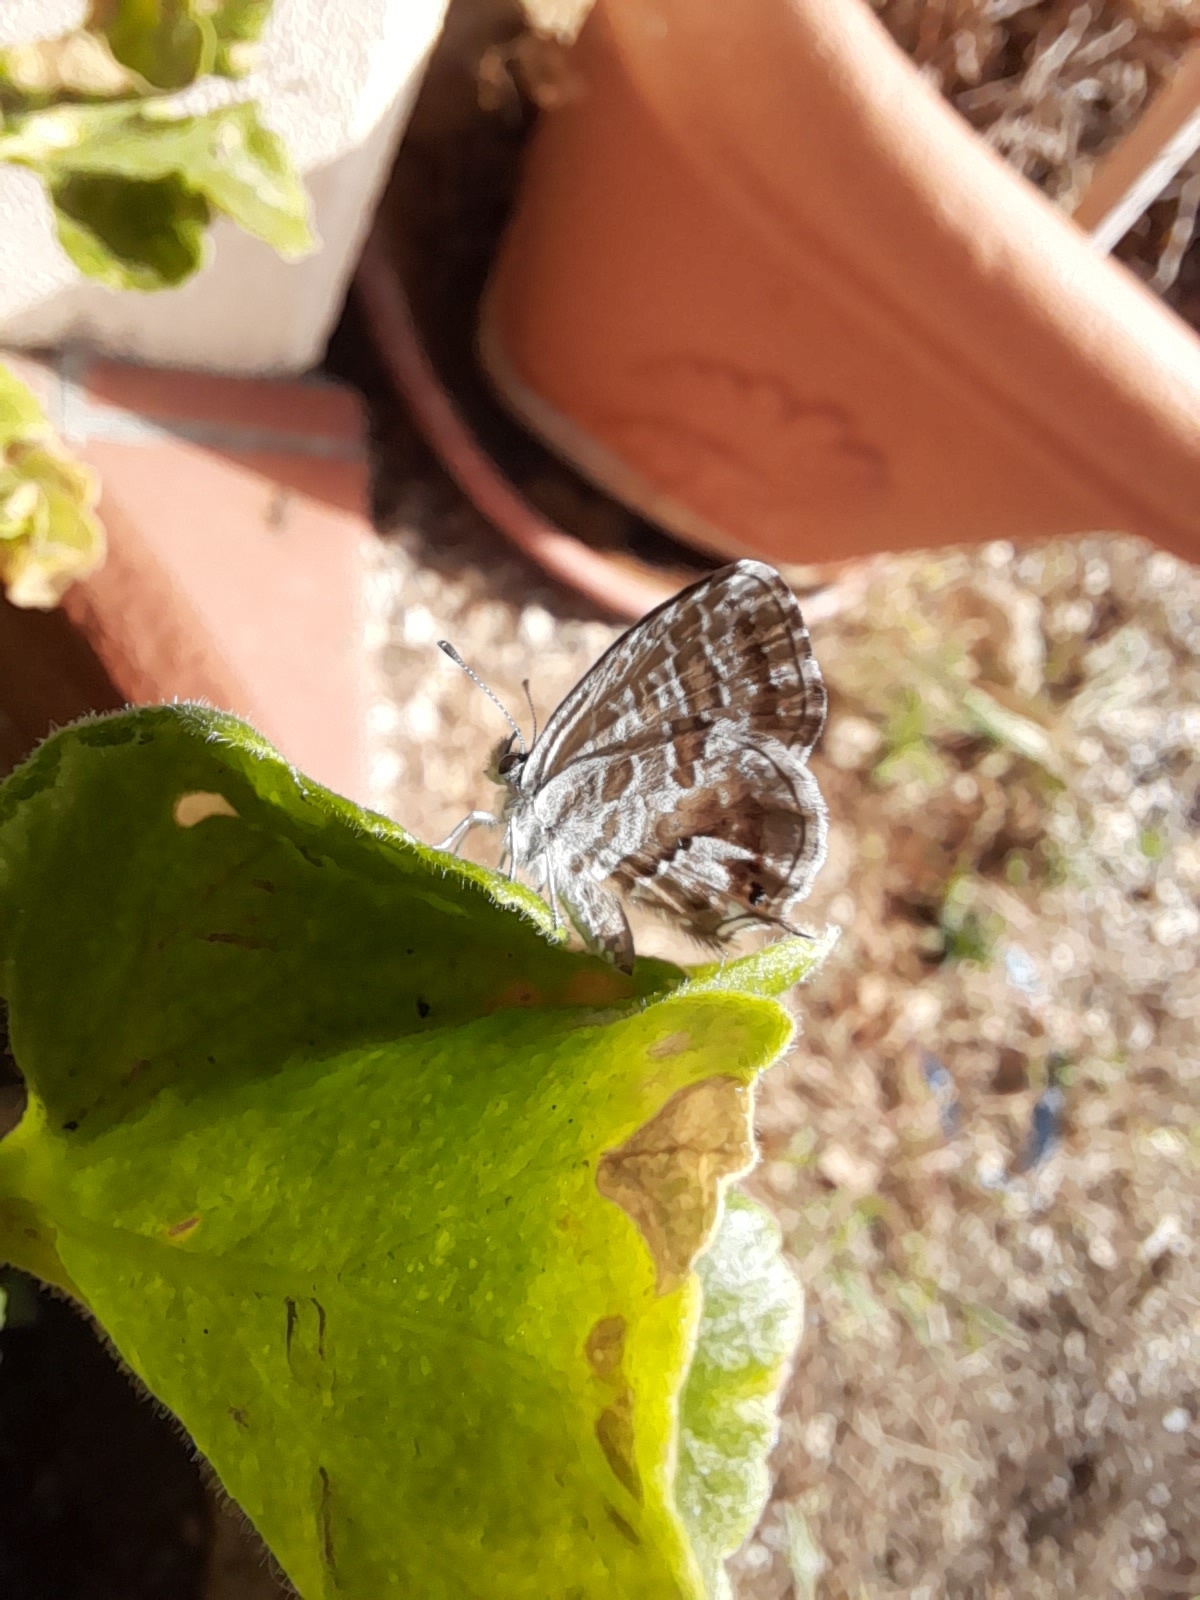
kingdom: Animalia
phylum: Arthropoda
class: Insecta
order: Lepidoptera
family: Lycaenidae
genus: Cacyreus
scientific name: Cacyreus marshalli
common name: Geranium bronze
